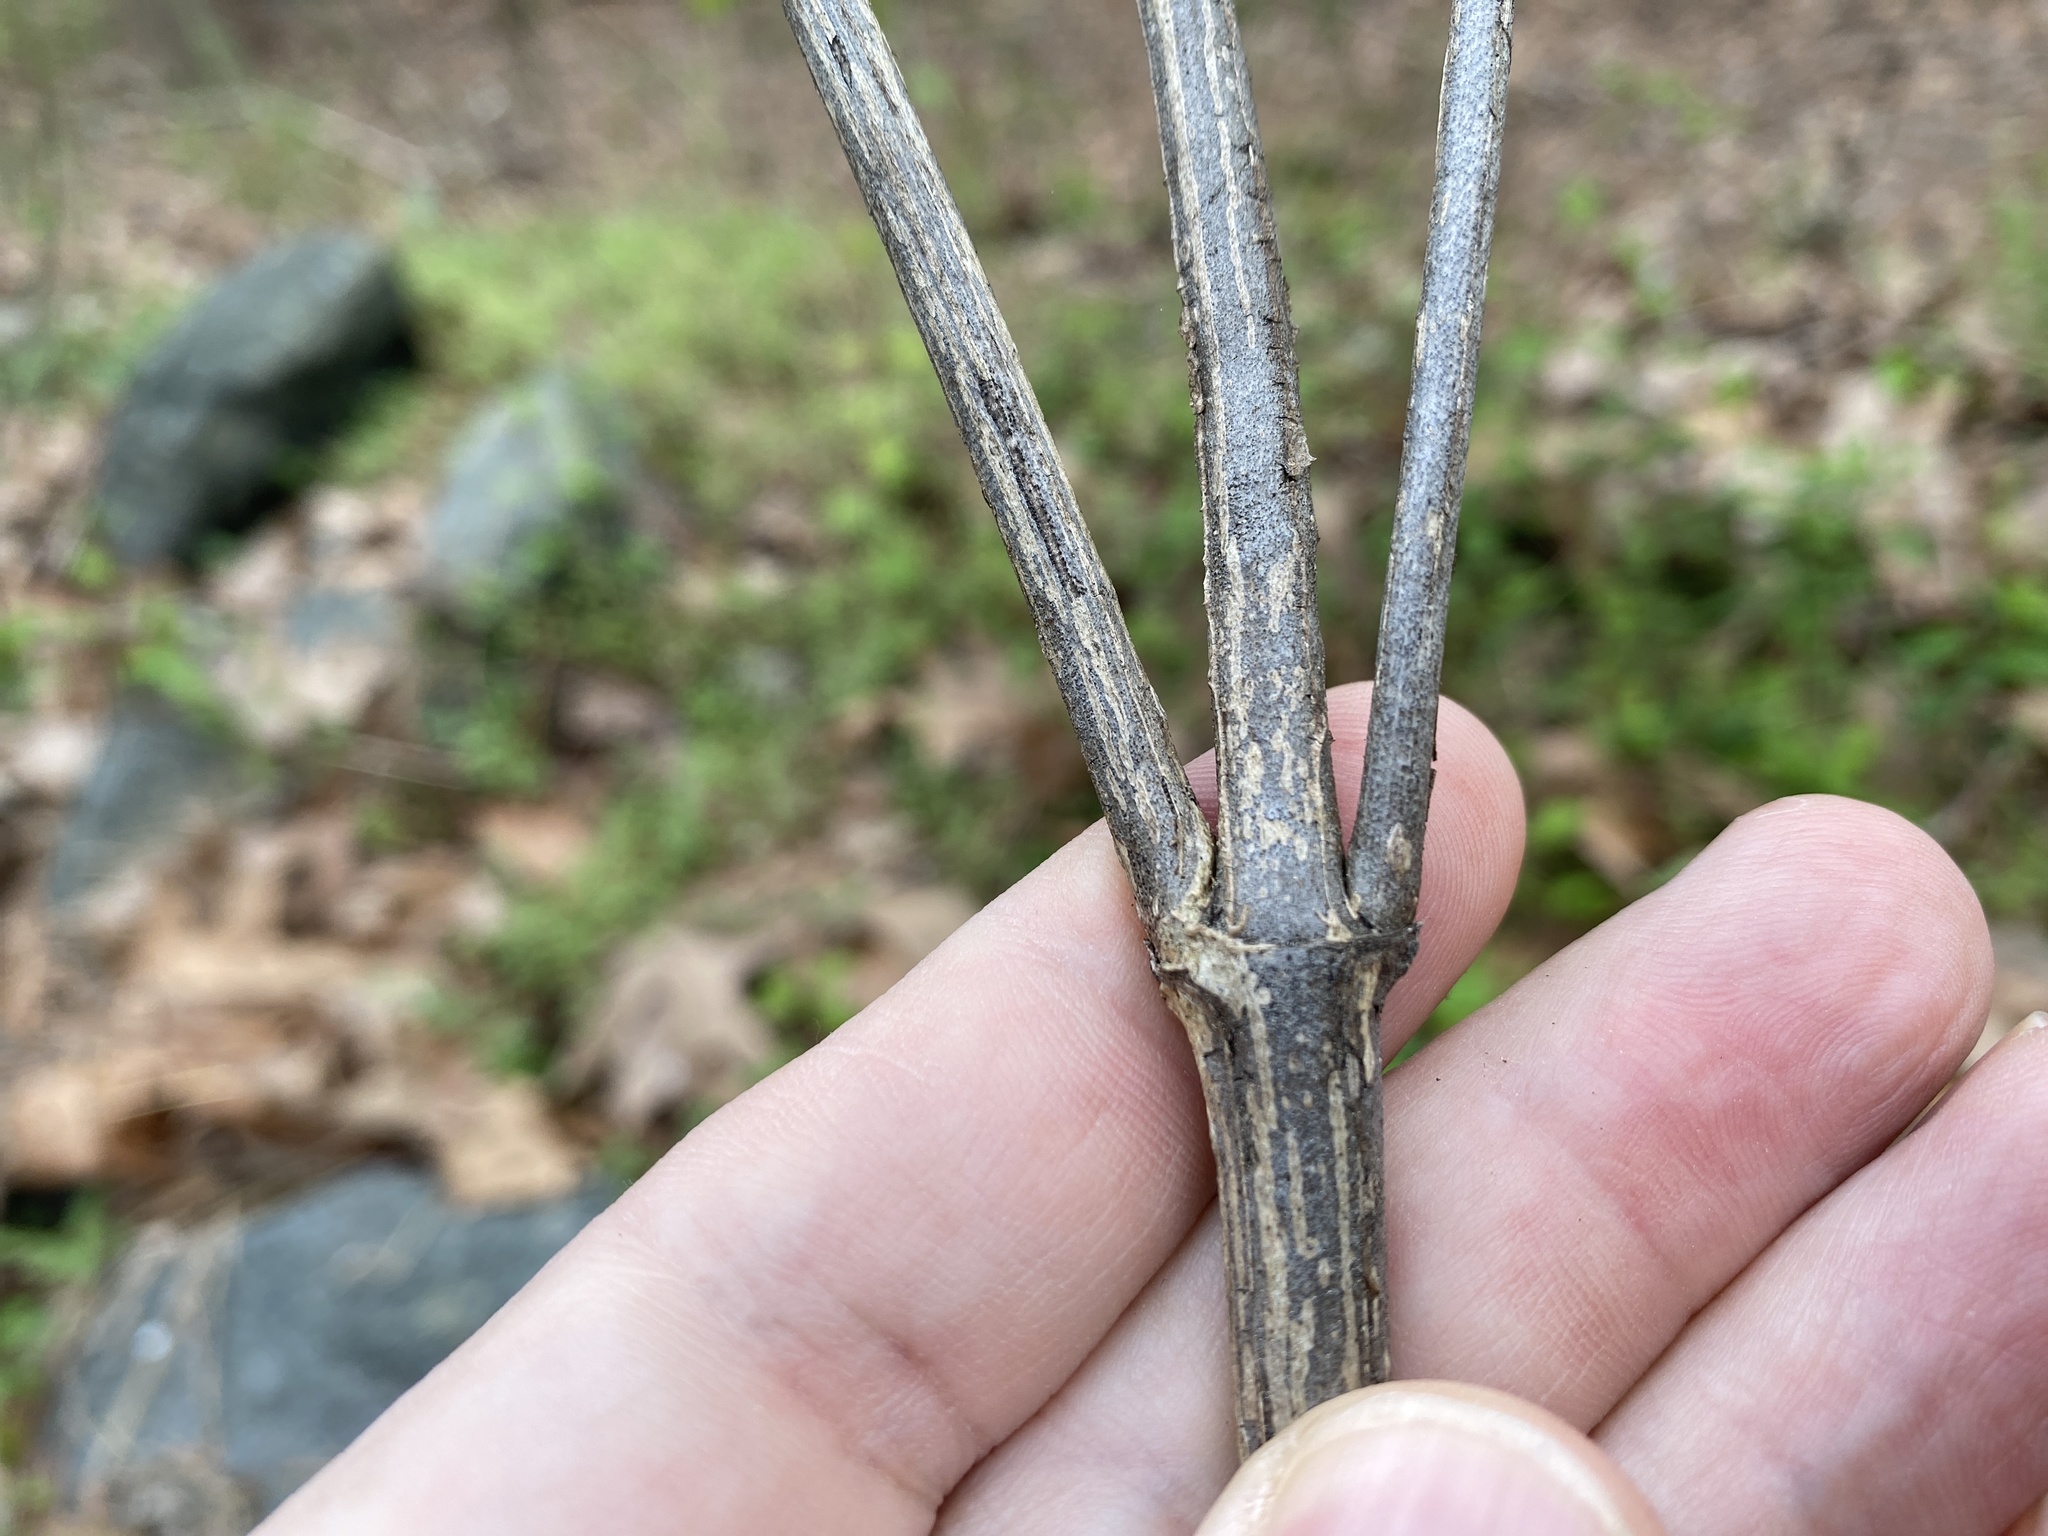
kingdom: Plantae
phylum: Tracheophyta
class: Magnoliopsida
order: Asterales
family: Asteraceae
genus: Verbesina
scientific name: Verbesina occidentalis
